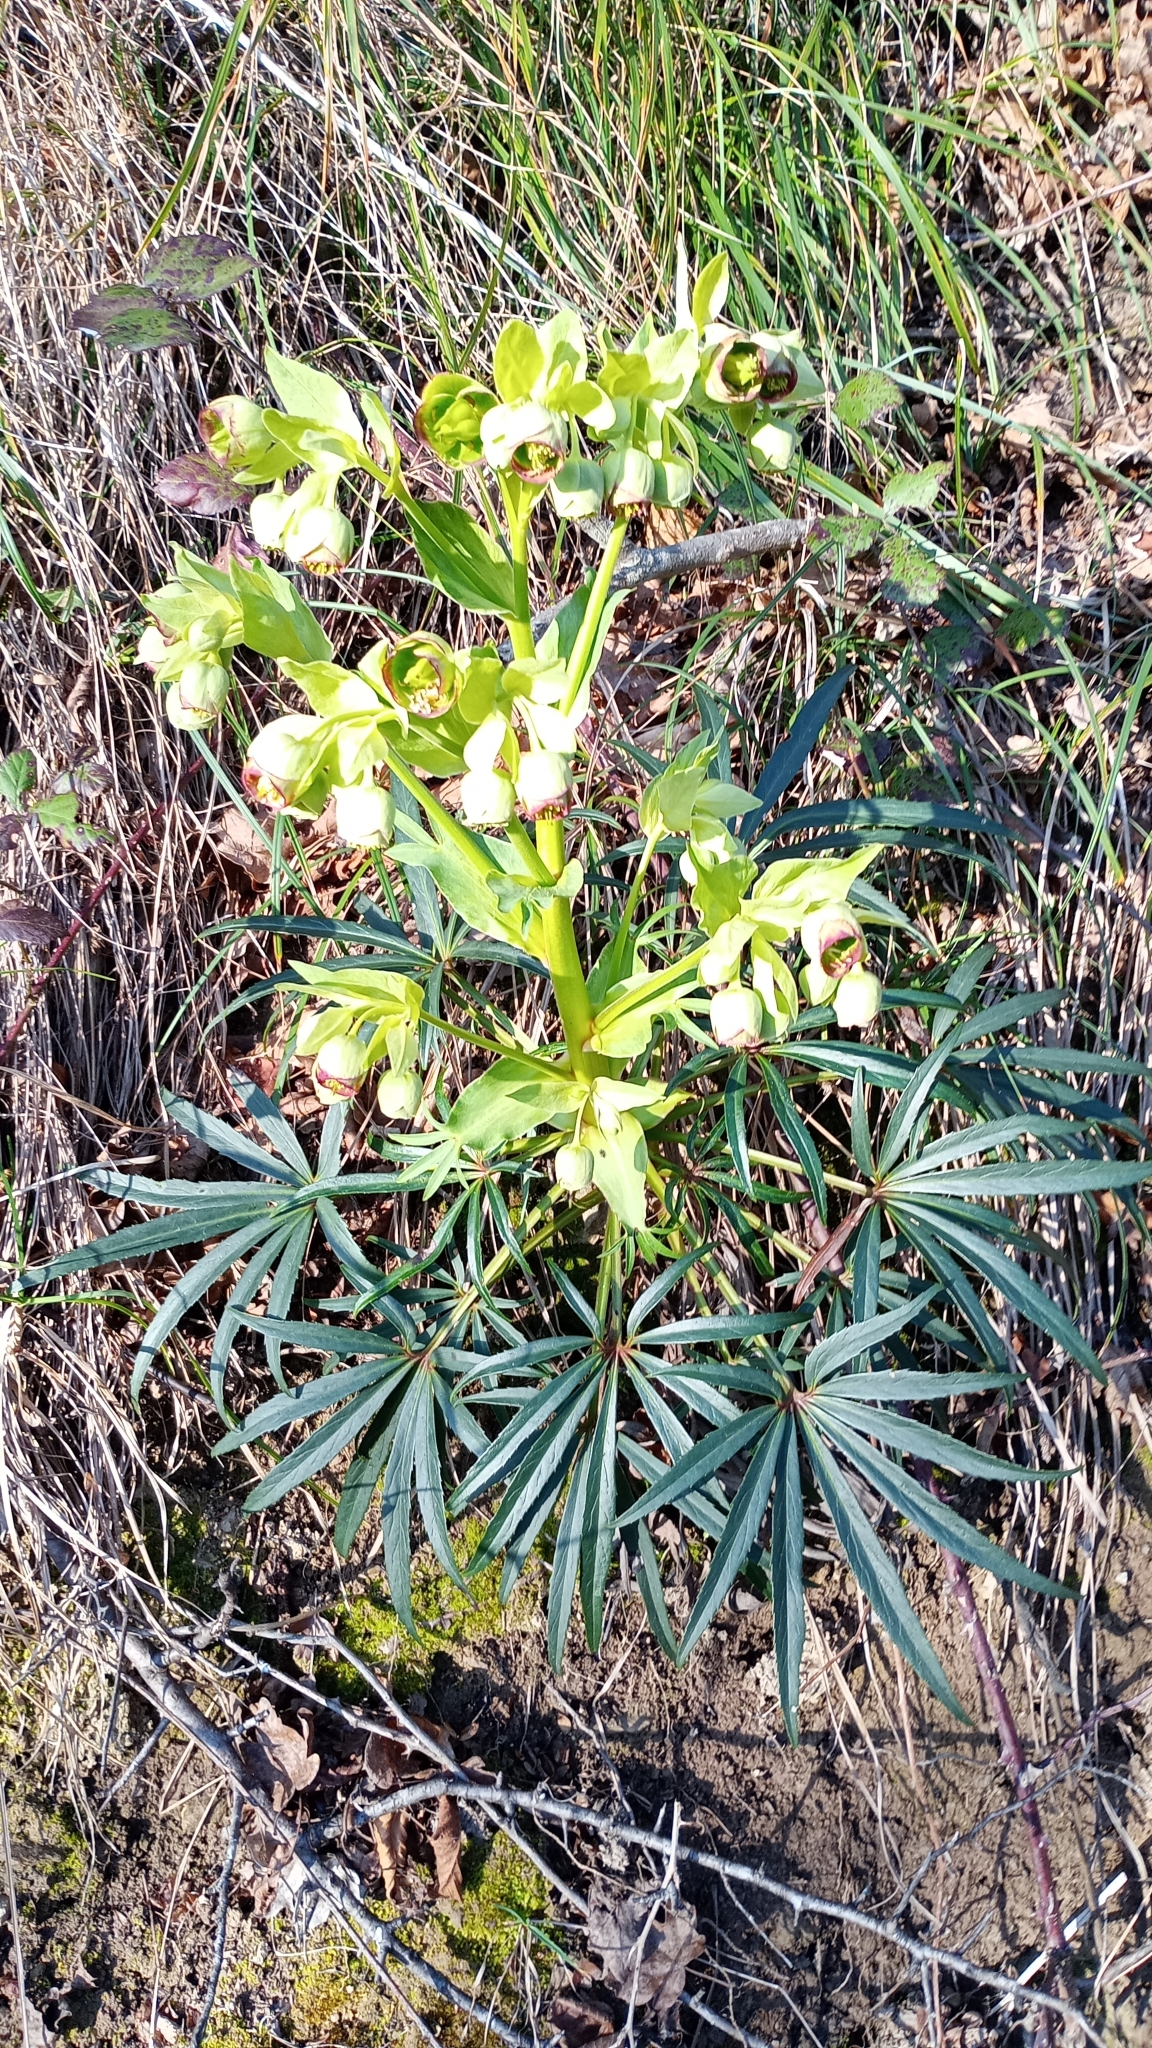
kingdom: Plantae
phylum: Tracheophyta
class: Magnoliopsida
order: Ranunculales
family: Ranunculaceae
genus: Helleborus
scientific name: Helleborus foetidus
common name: Stinking hellebore
